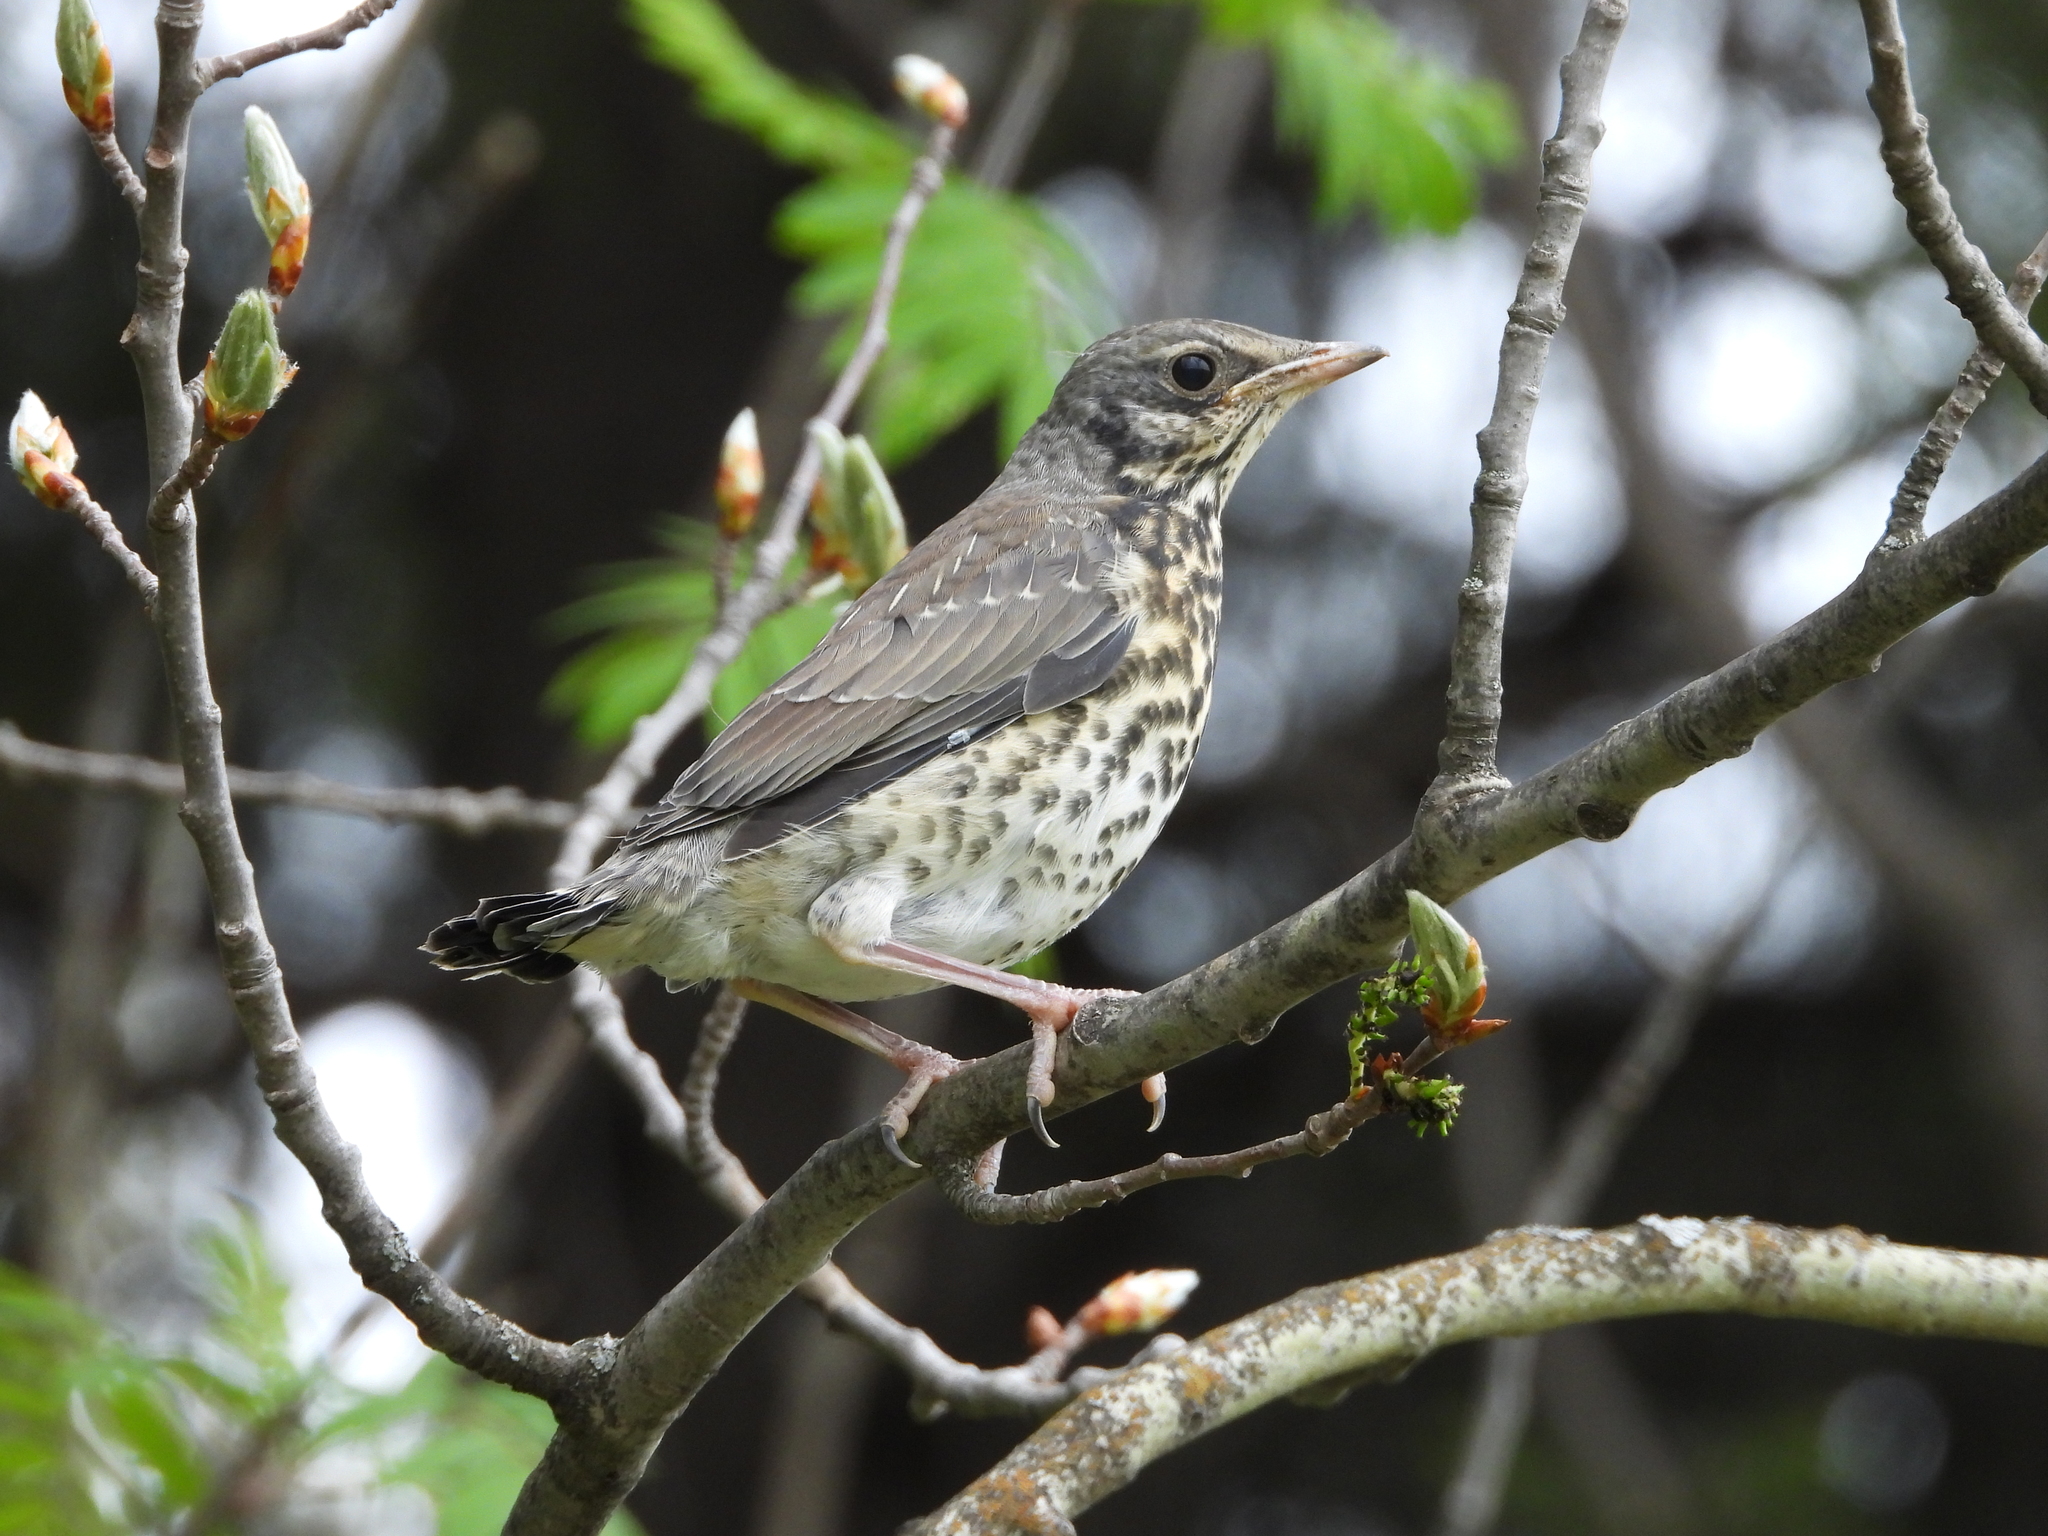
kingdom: Animalia
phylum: Chordata
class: Aves
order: Passeriformes
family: Turdidae
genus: Turdus
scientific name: Turdus pilaris
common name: Fieldfare
